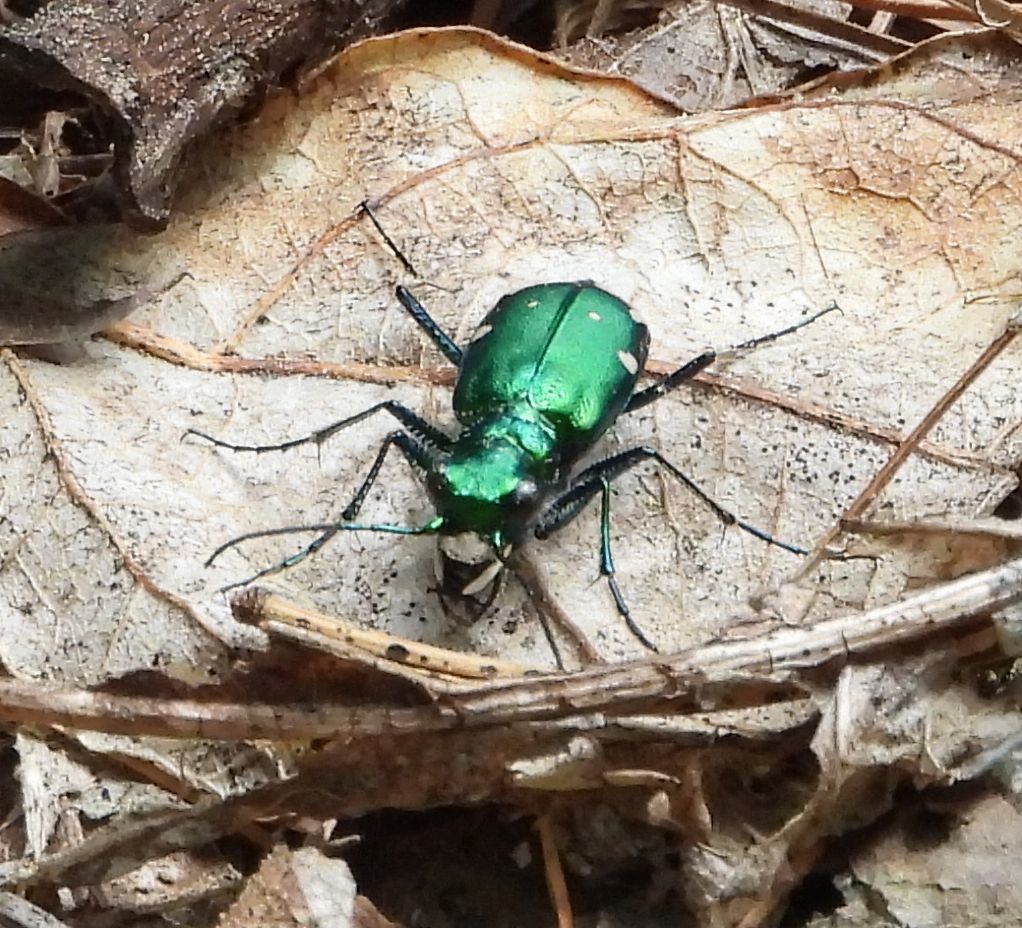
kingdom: Animalia
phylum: Arthropoda
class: Insecta
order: Coleoptera
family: Carabidae
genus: Cicindela
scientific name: Cicindela sexguttata
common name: Six-spotted tiger beetle
